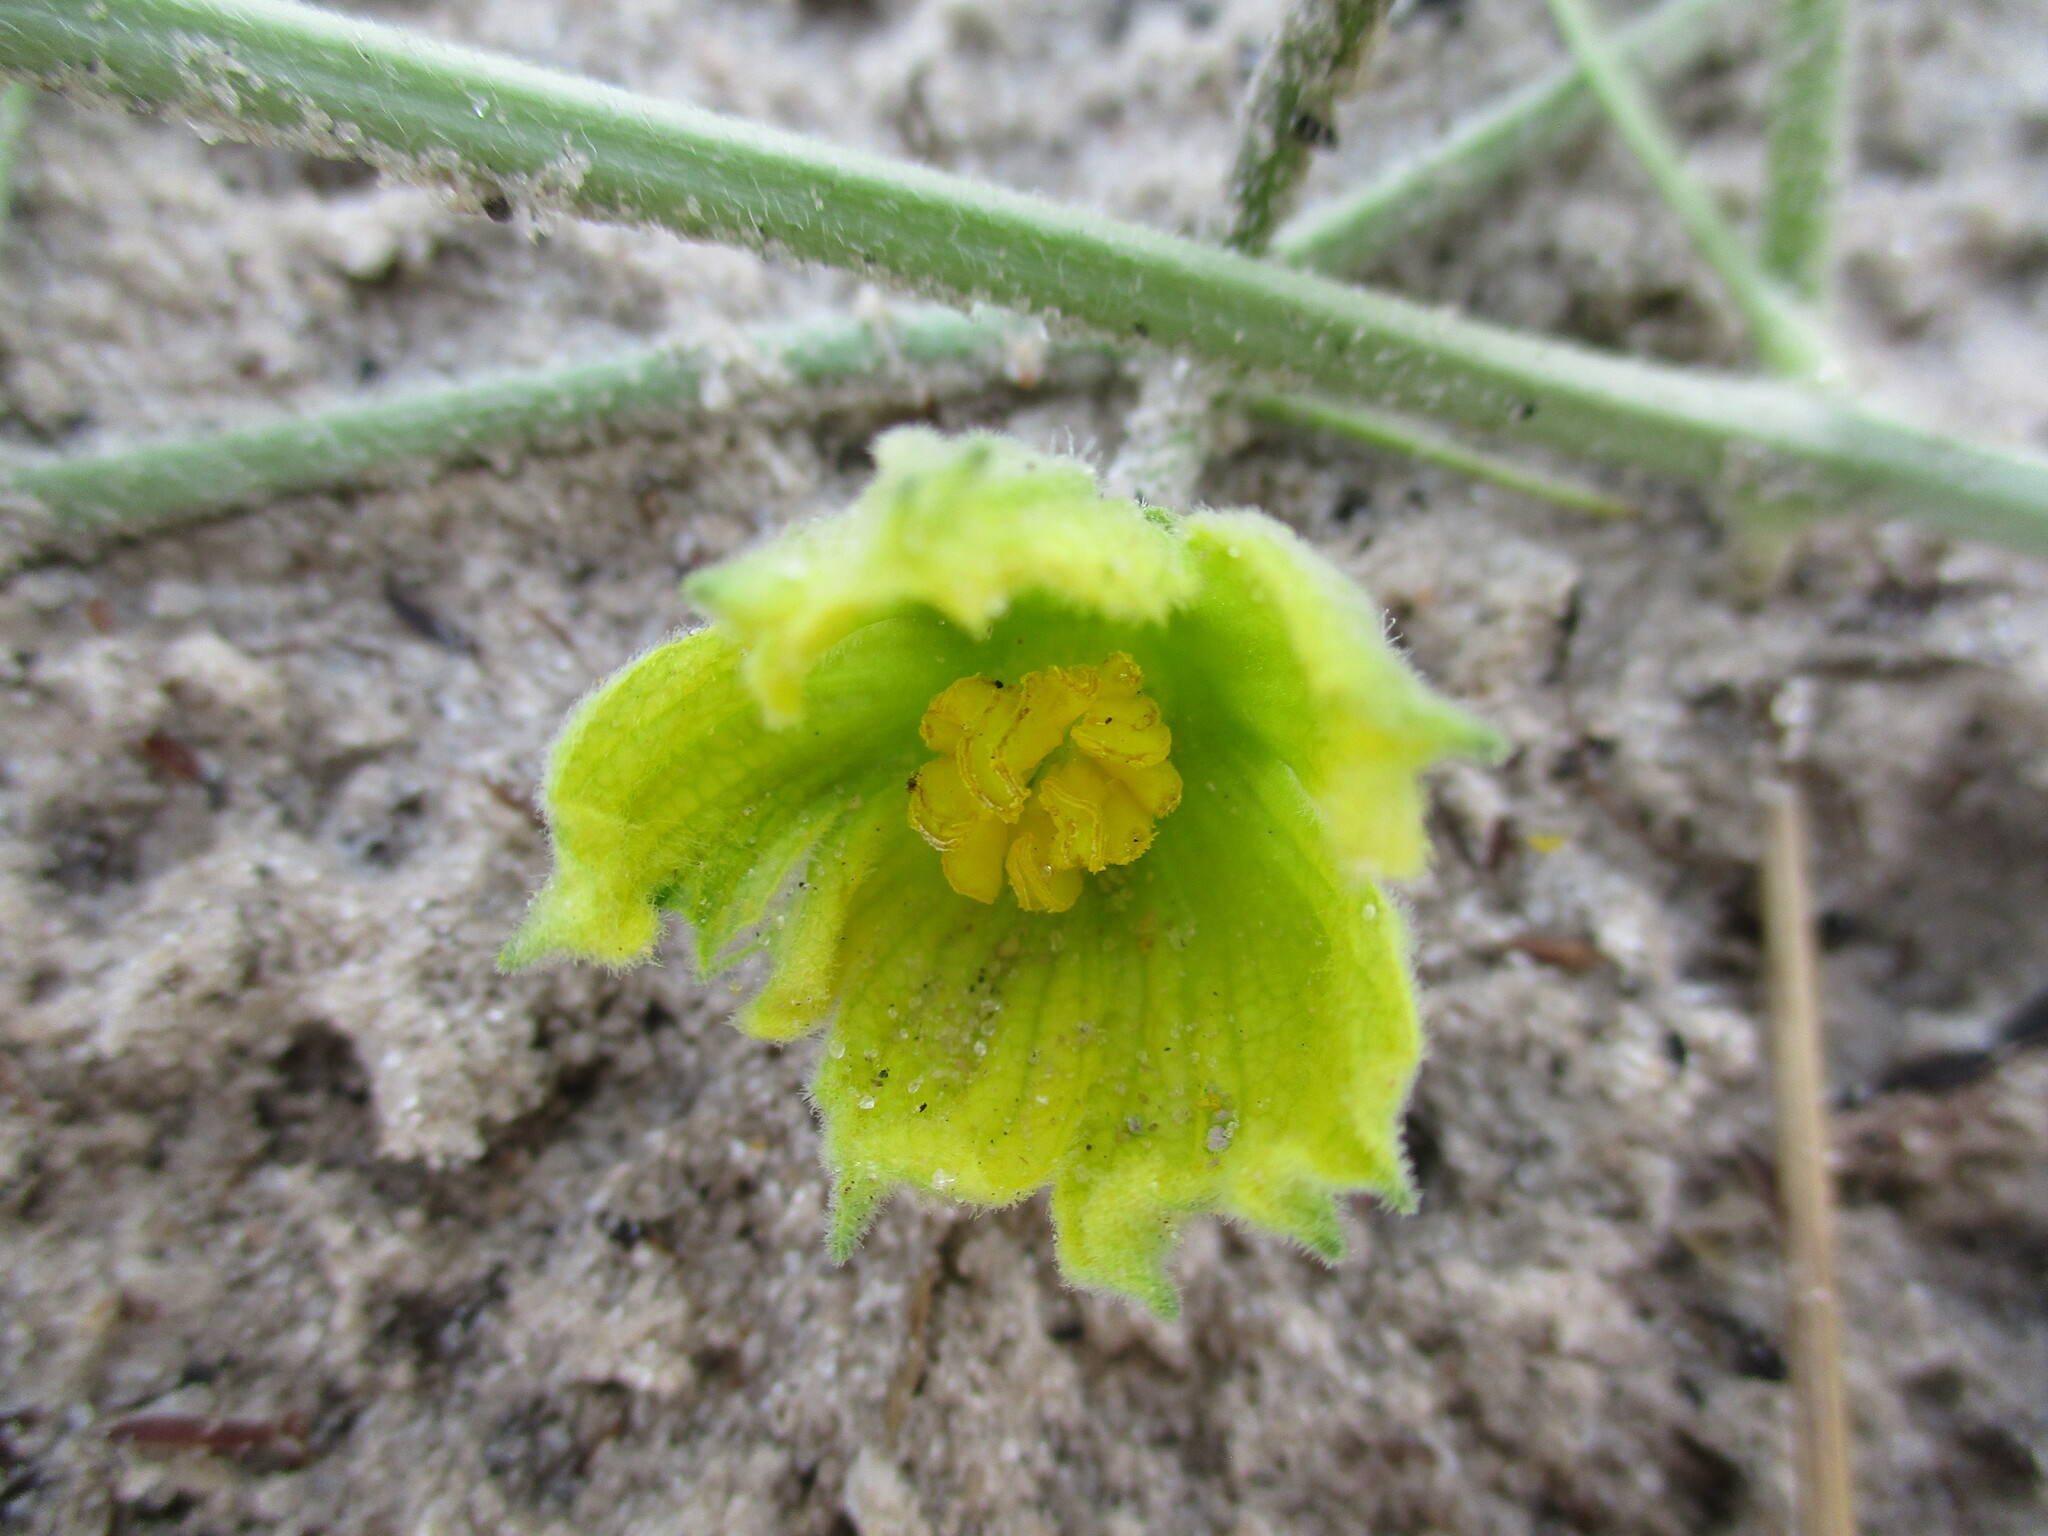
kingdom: Plantae
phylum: Tracheophyta
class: Magnoliopsida
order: Cucurbitales
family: Cucurbitaceae
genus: Citrullus
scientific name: Citrullus naudinianus
